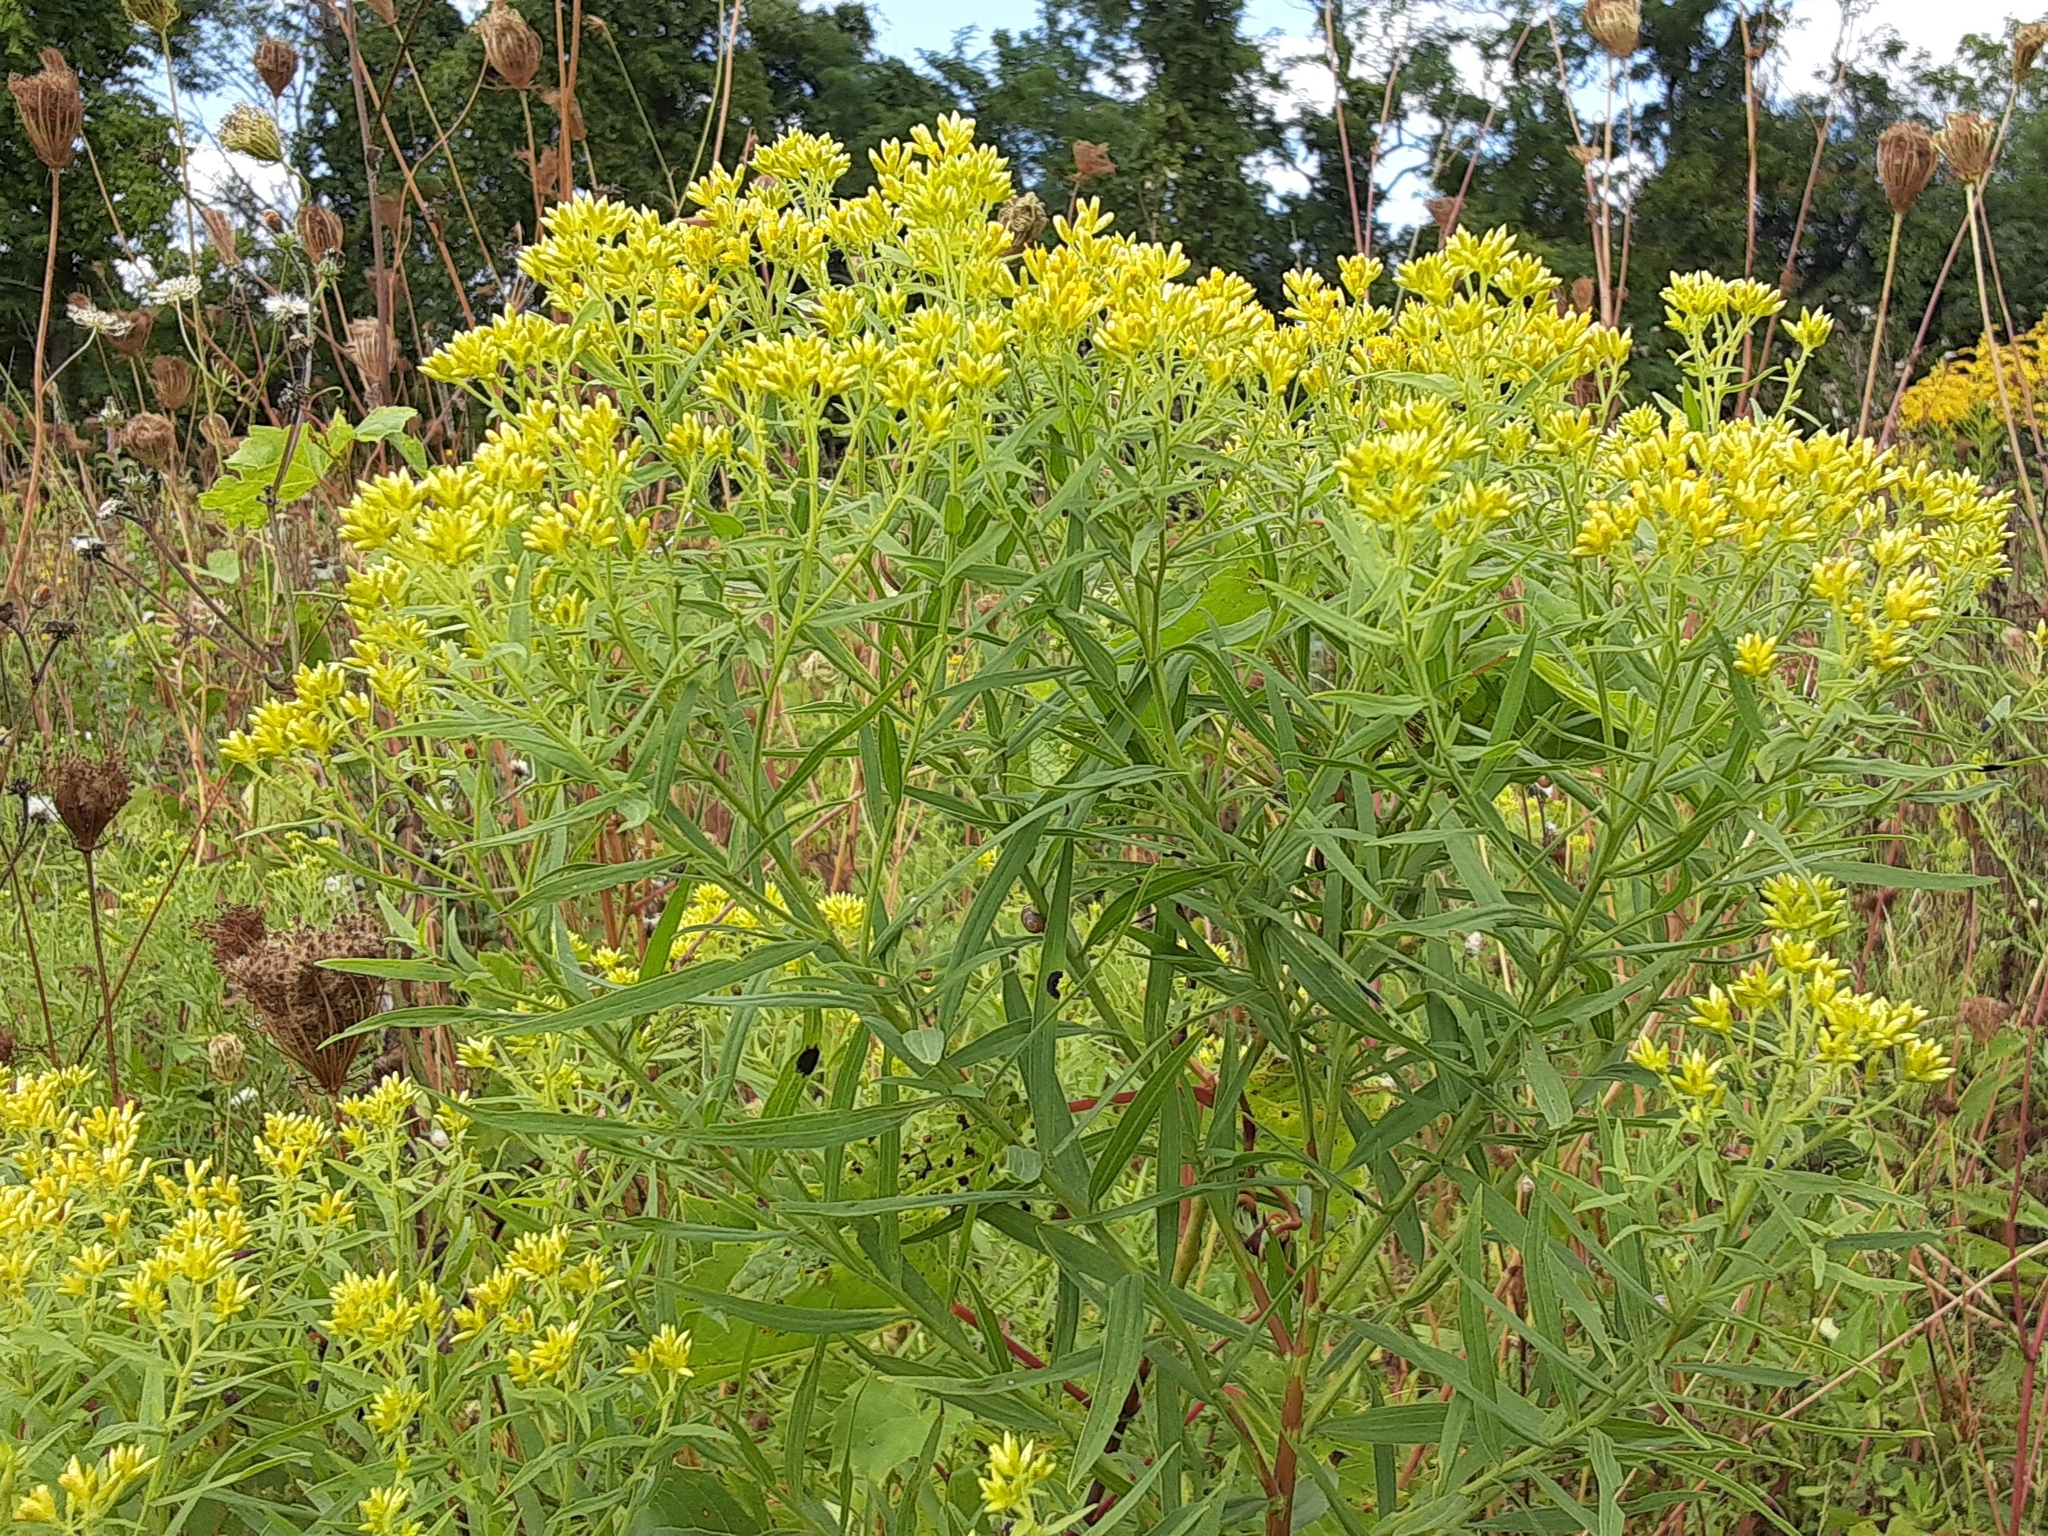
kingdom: Plantae
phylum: Tracheophyta
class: Magnoliopsida
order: Asterales
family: Asteraceae
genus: Euthamia
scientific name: Euthamia graminifolia
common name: Common goldentop
